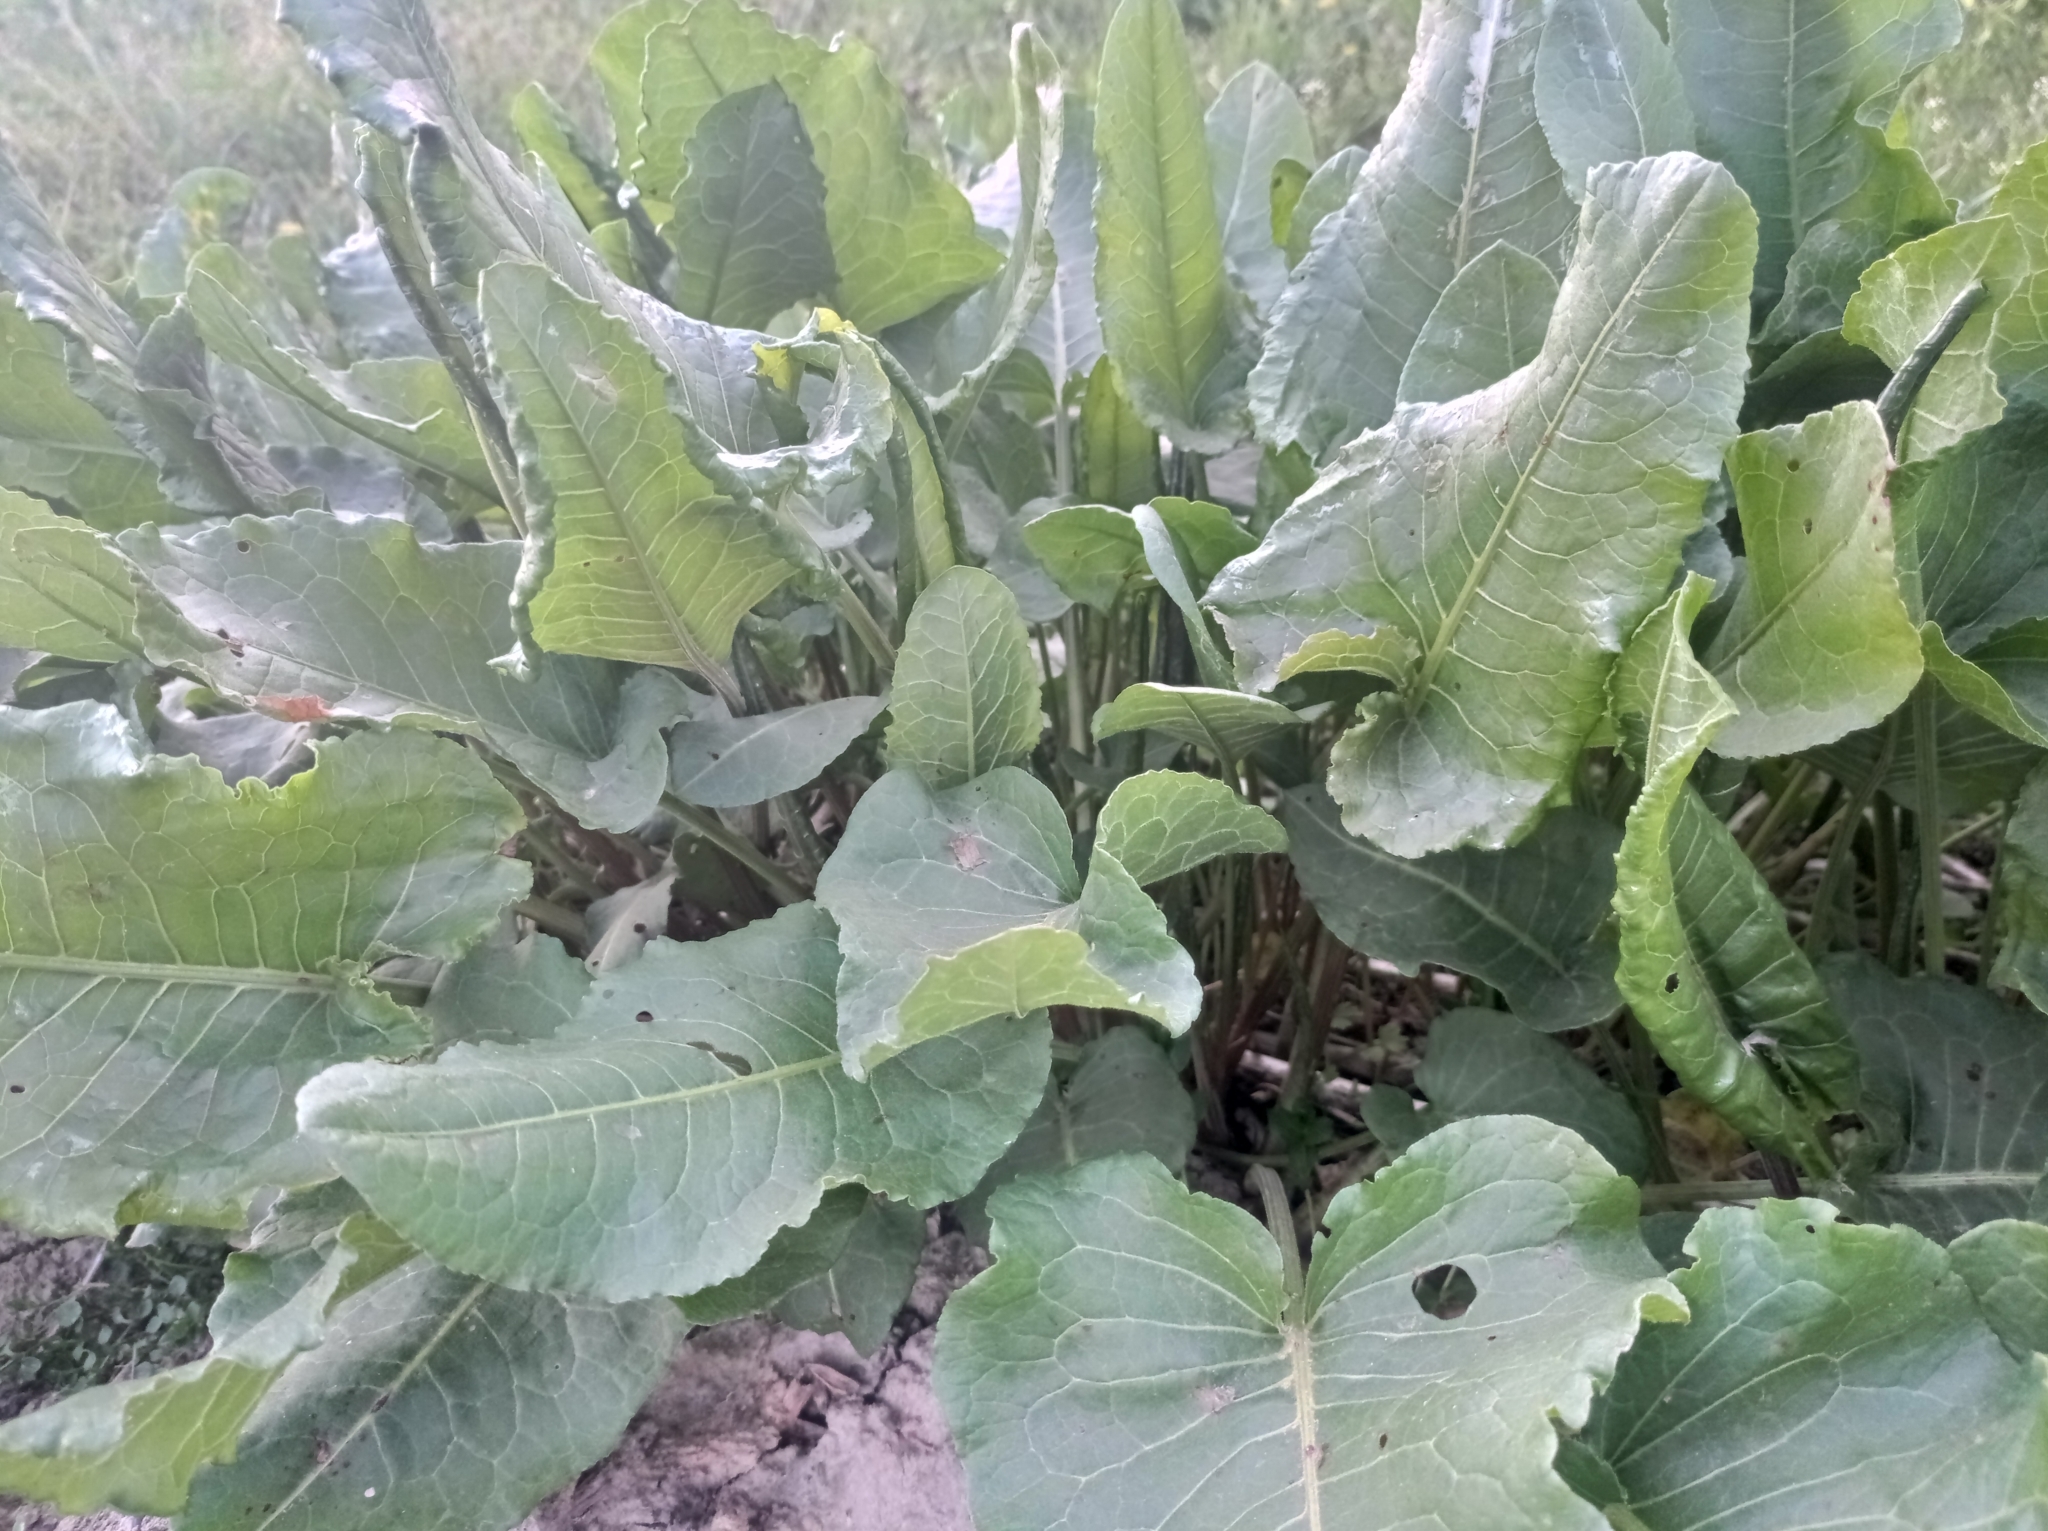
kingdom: Plantae
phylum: Tracheophyta
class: Magnoliopsida
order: Caryophyllales
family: Polygonaceae
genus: Rumex
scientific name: Rumex confertus
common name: Russian dock
